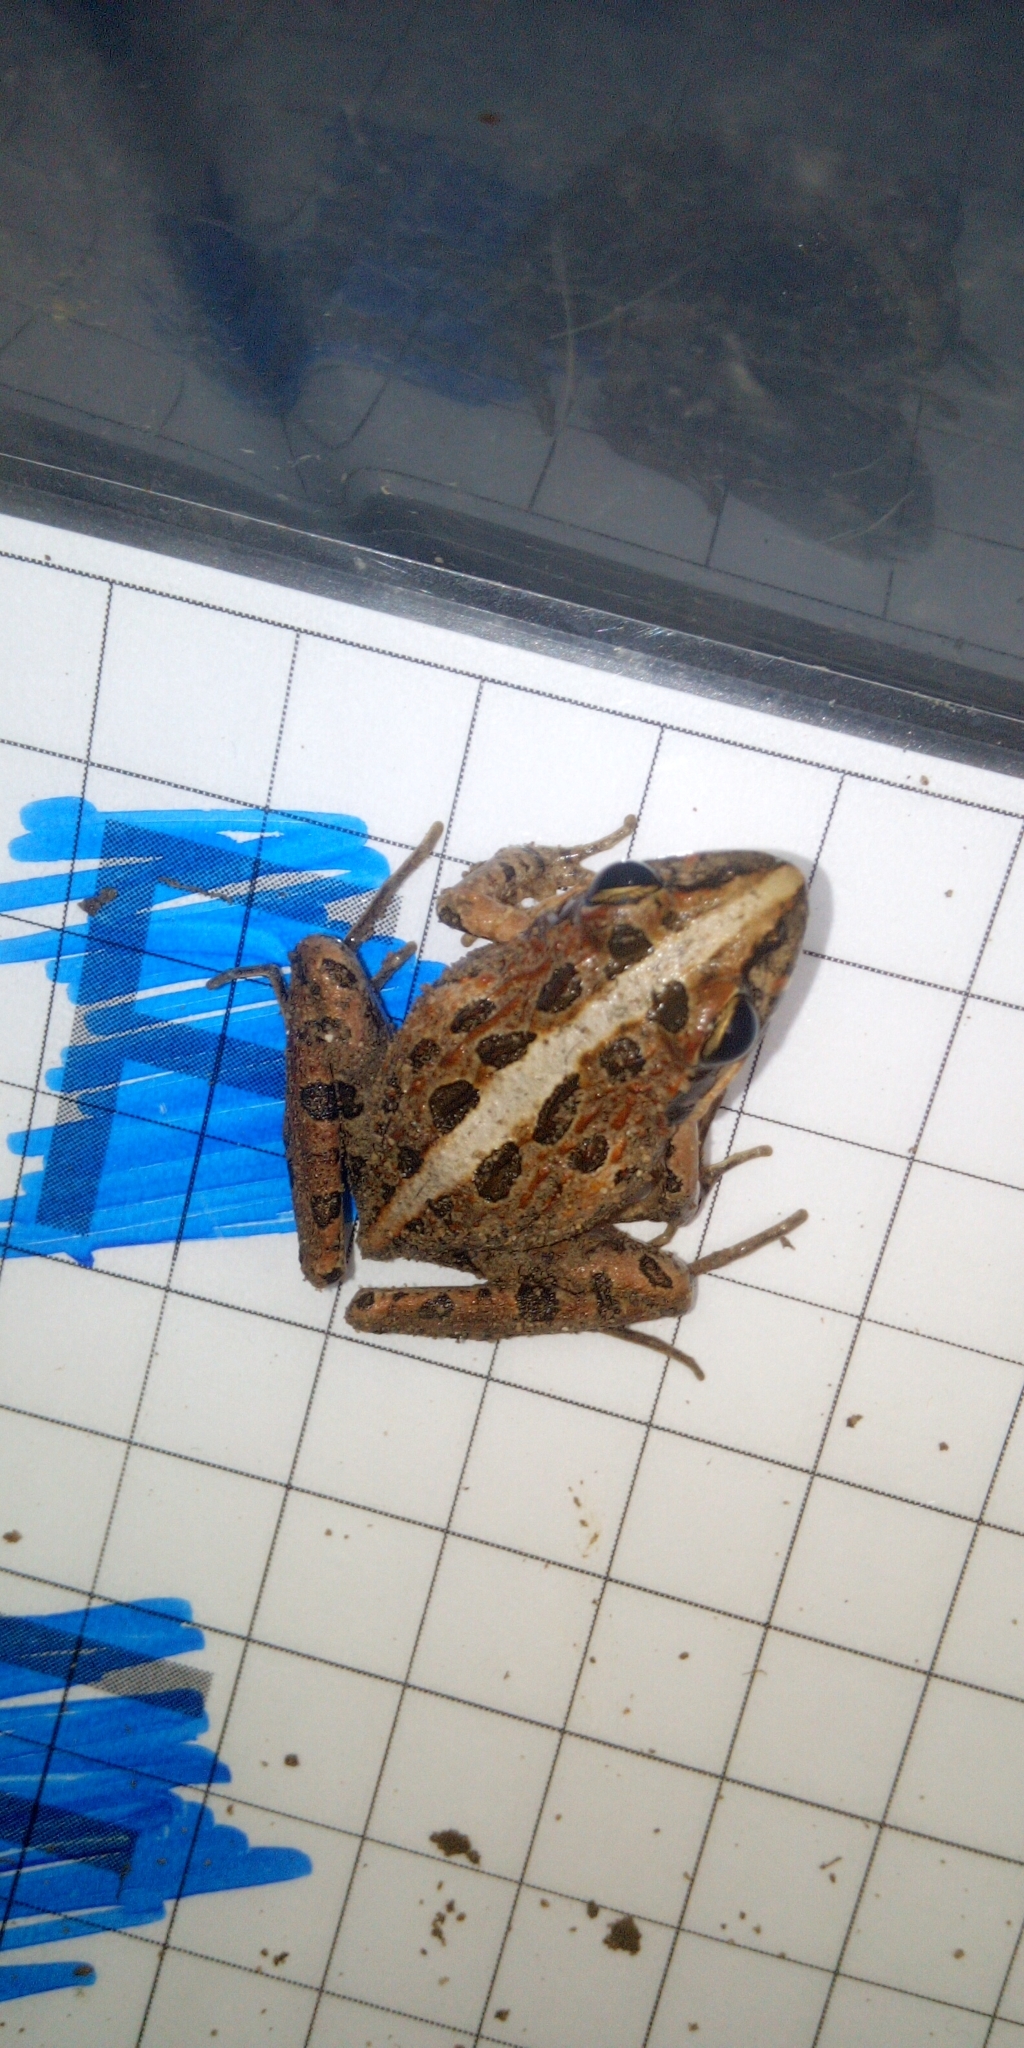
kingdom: Animalia
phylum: Chordata
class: Amphibia
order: Anura
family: Pyxicephalidae
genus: Strongylopus
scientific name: Strongylopus grayii
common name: Gray's stream frog
